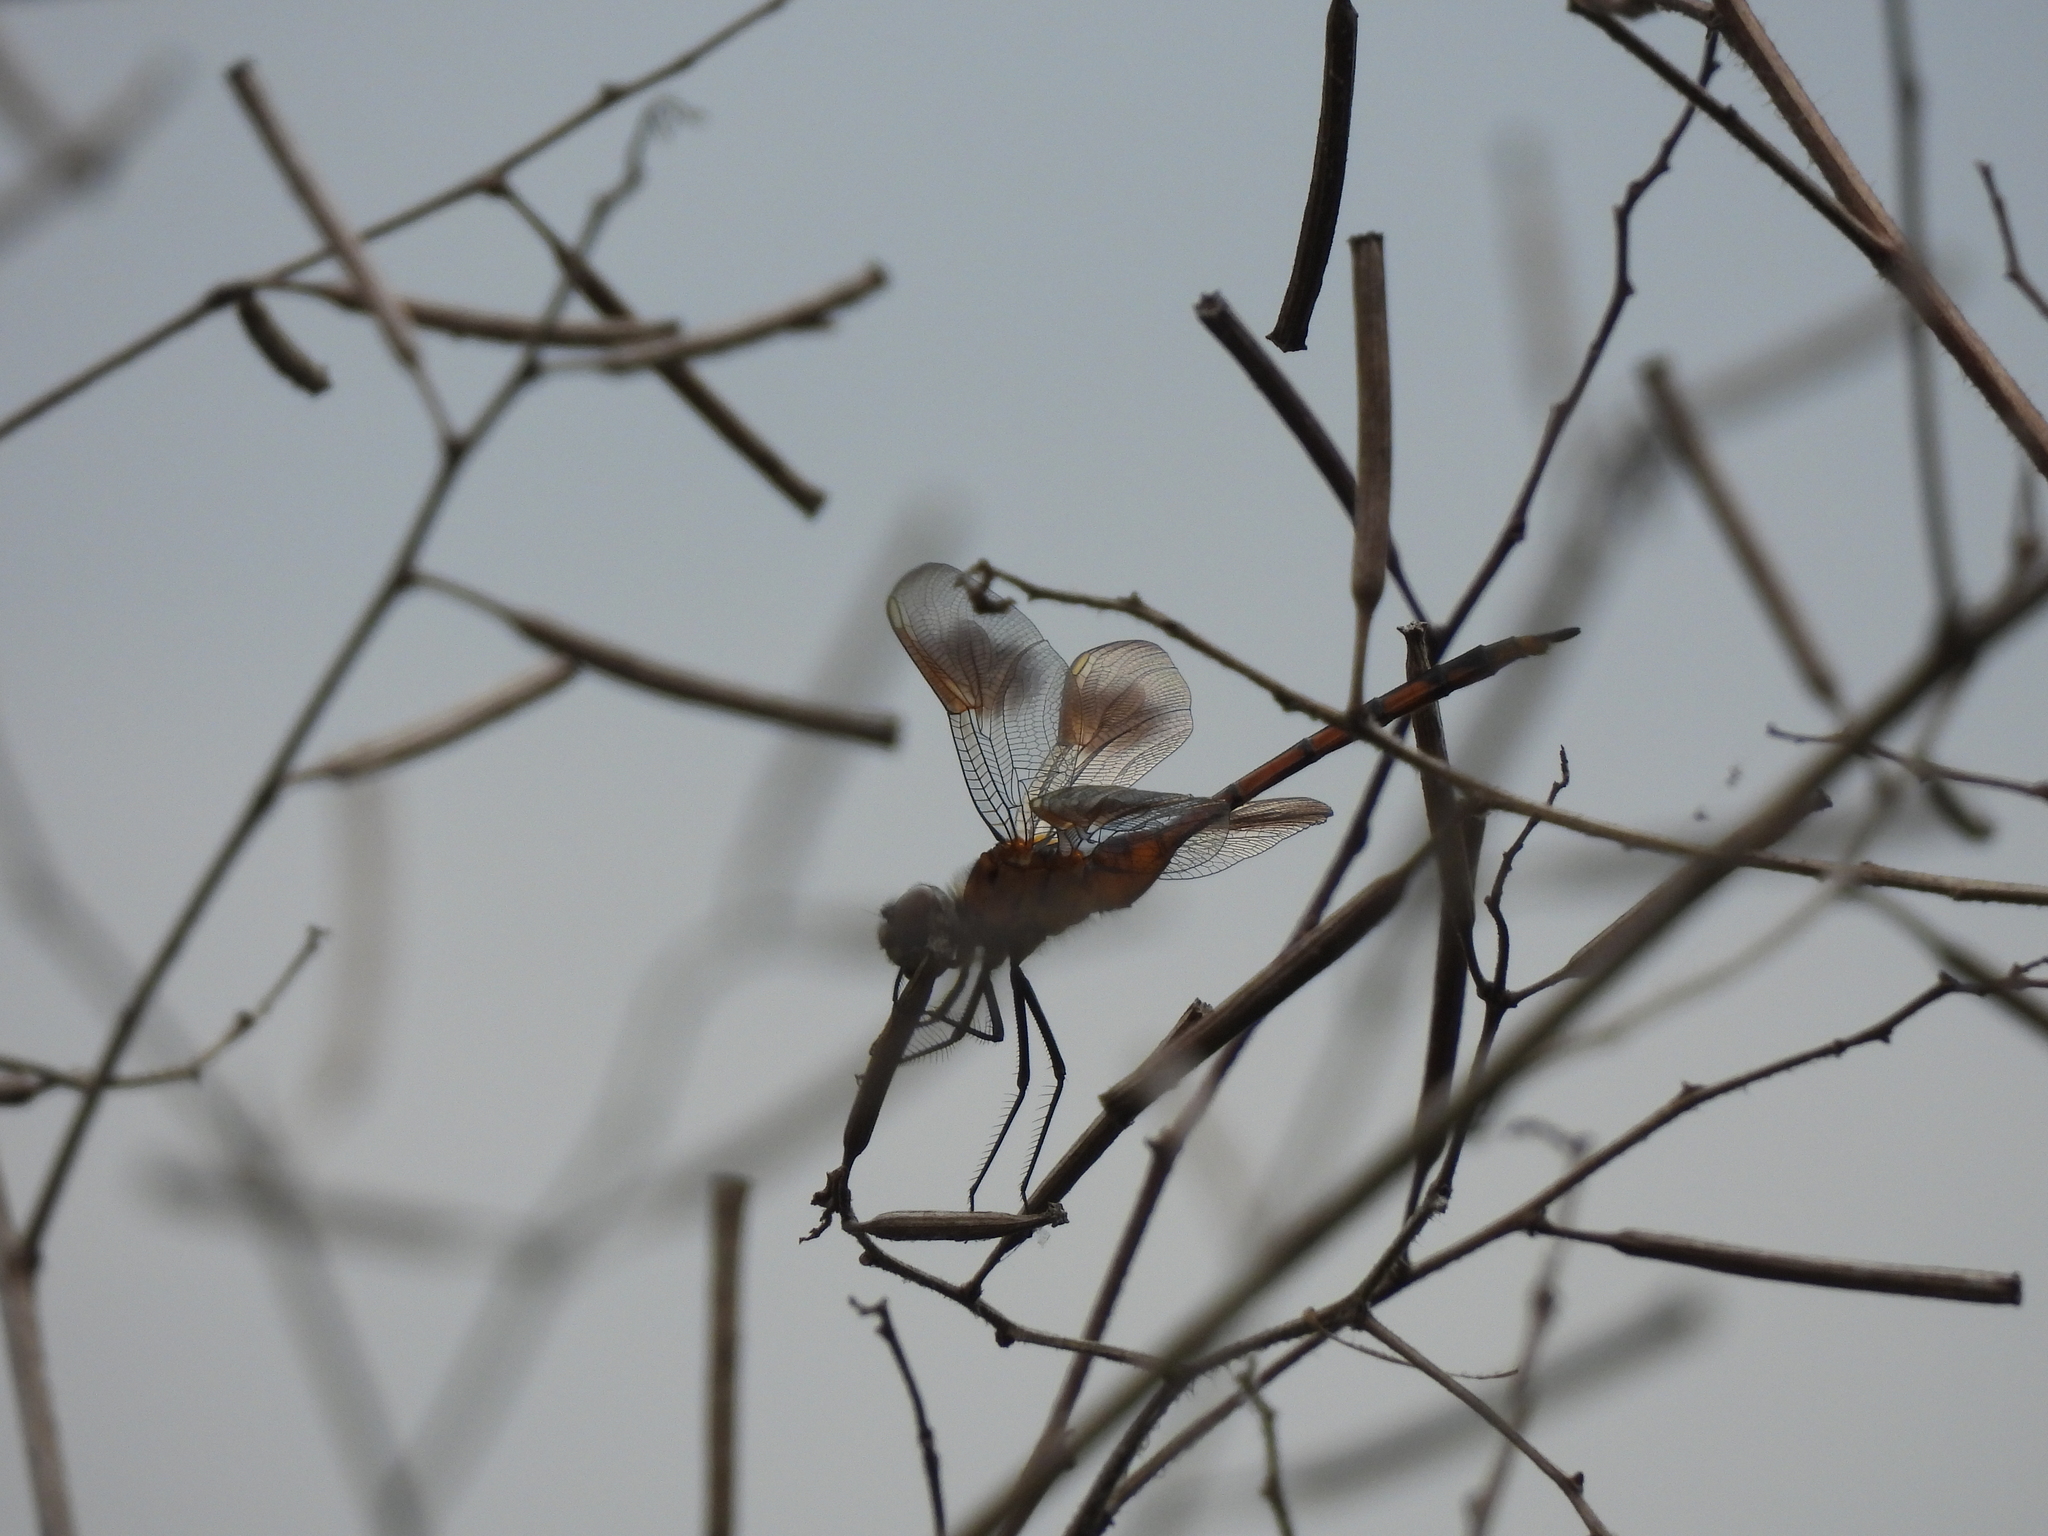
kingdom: Animalia
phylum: Arthropoda
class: Insecta
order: Odonata
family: Libellulidae
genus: Brachymesia
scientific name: Brachymesia gravida
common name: Four-spotted pennant
